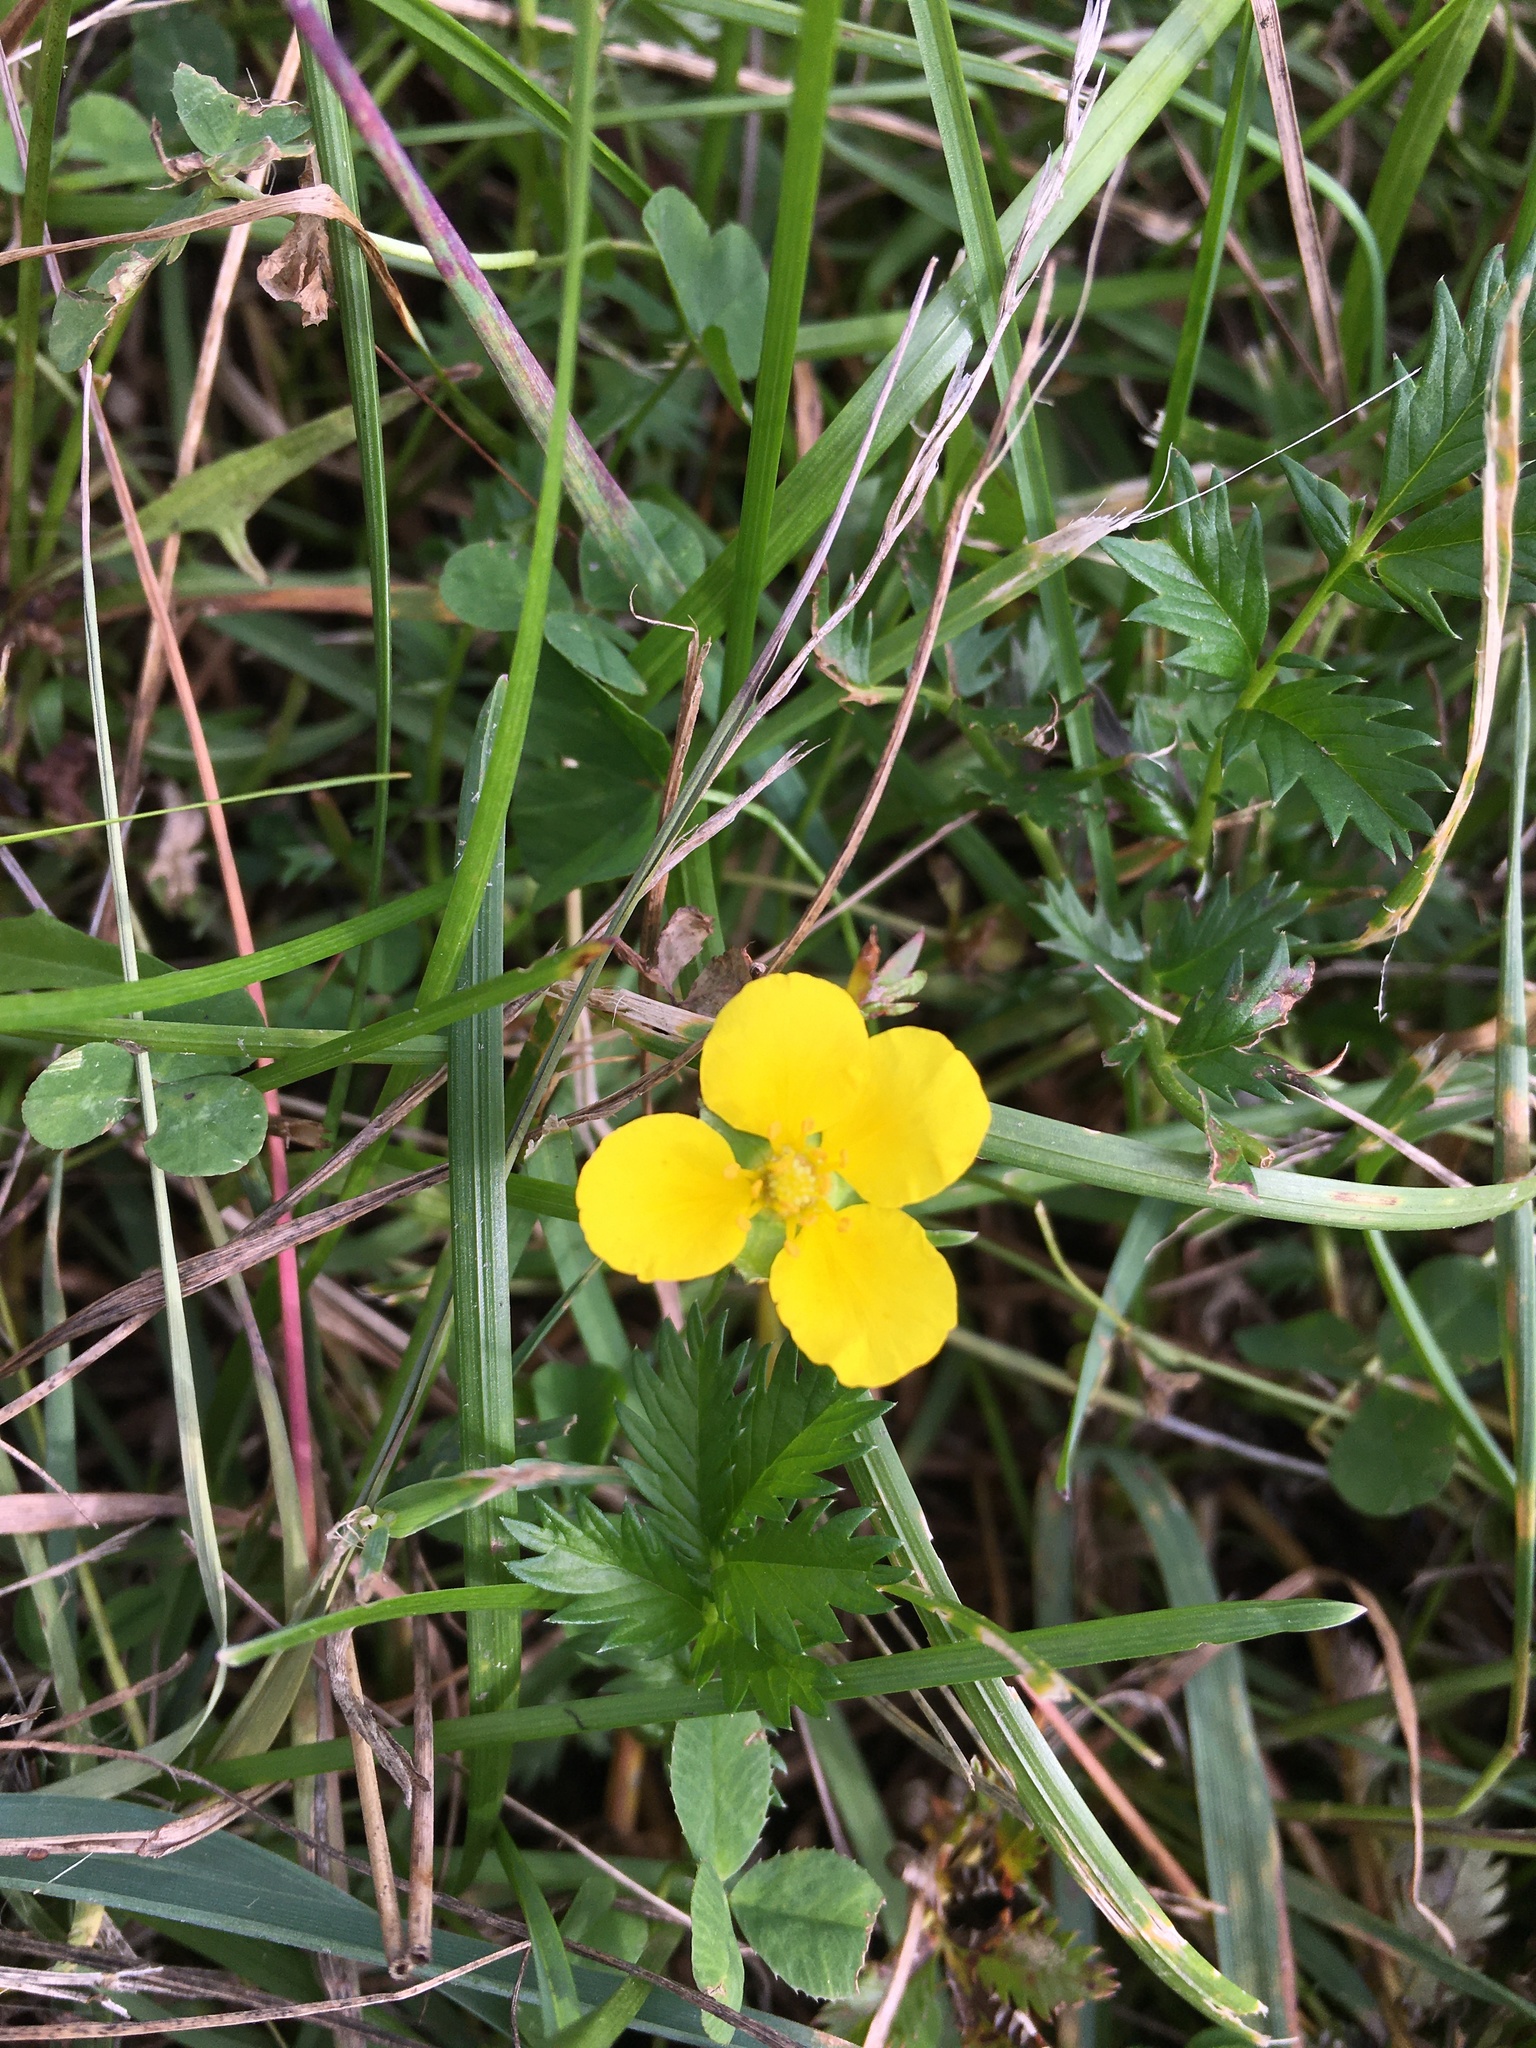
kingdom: Plantae
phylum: Tracheophyta
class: Magnoliopsida
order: Rosales
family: Rosaceae
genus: Argentina
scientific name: Argentina anserina
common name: Common silverweed
